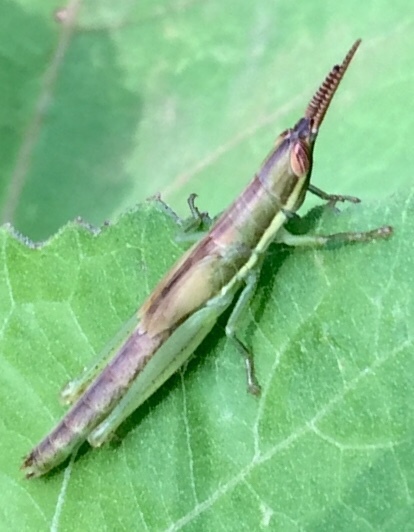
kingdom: Animalia
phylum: Arthropoda
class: Insecta
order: Orthoptera
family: Acrididae
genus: Leptysma
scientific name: Leptysma marginicollis
